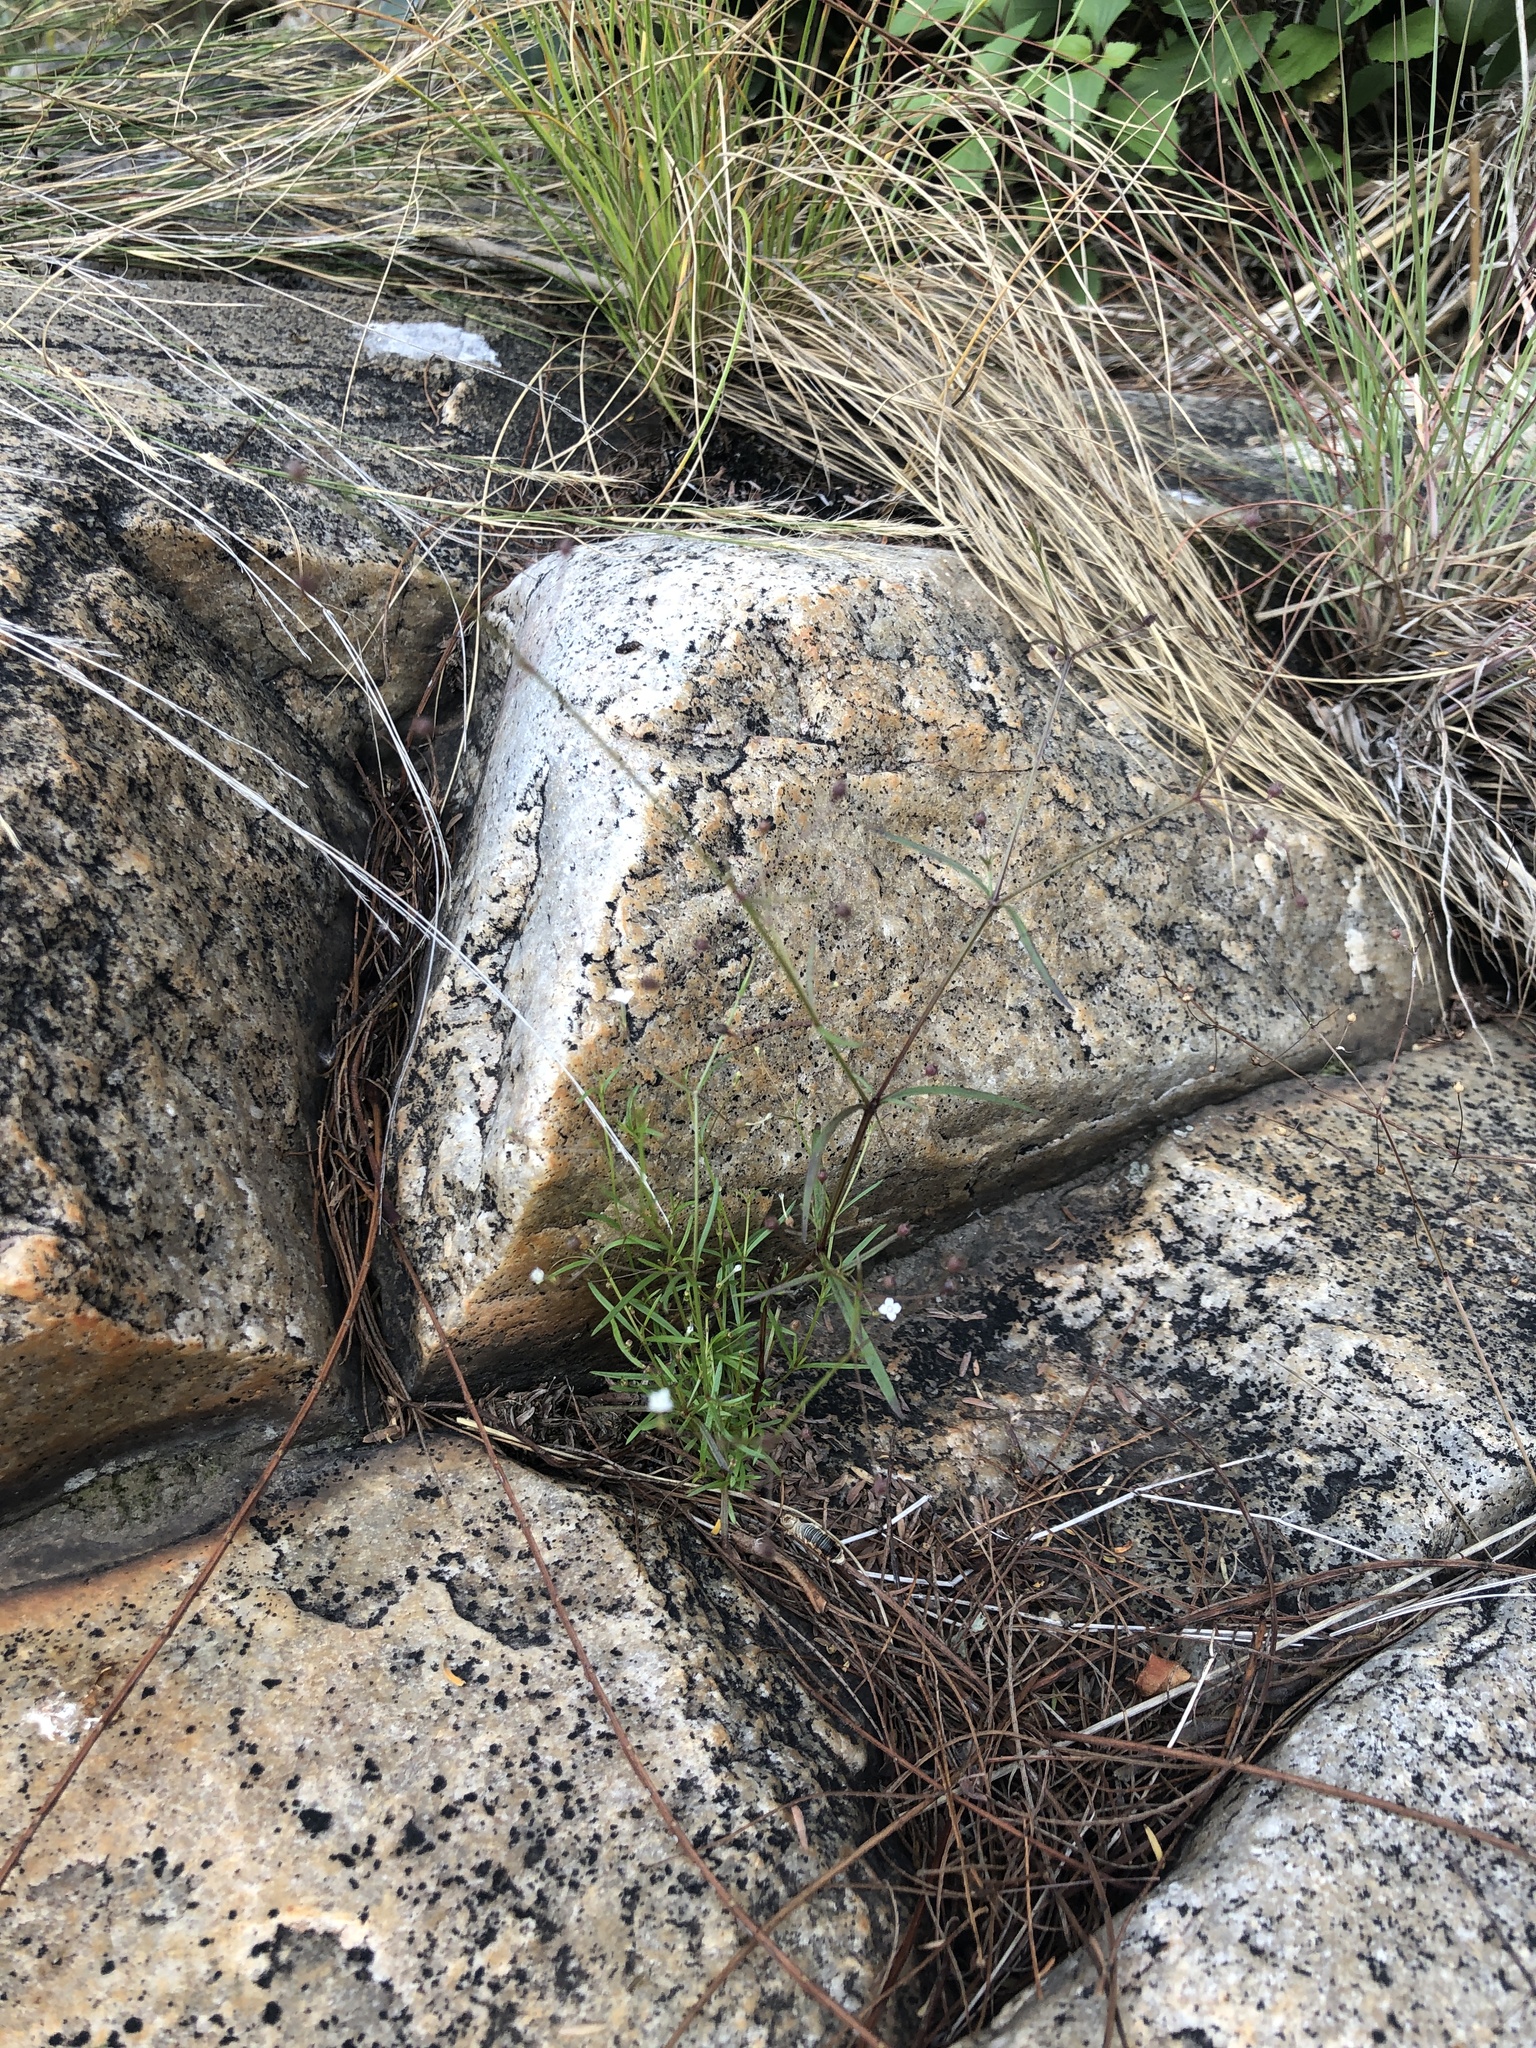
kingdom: Plantae
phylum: Tracheophyta
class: Magnoliopsida
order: Gentianales
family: Rubiaceae
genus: Oldenlandia
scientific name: Oldenlandia herbacea
